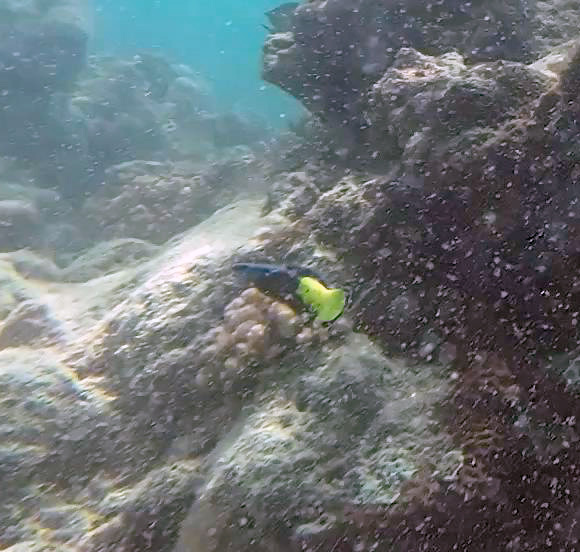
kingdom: Animalia
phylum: Chordata
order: Perciformes
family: Labridae
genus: Labroides
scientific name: Labroides bicolor
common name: Bicolor cleaner wrasse
